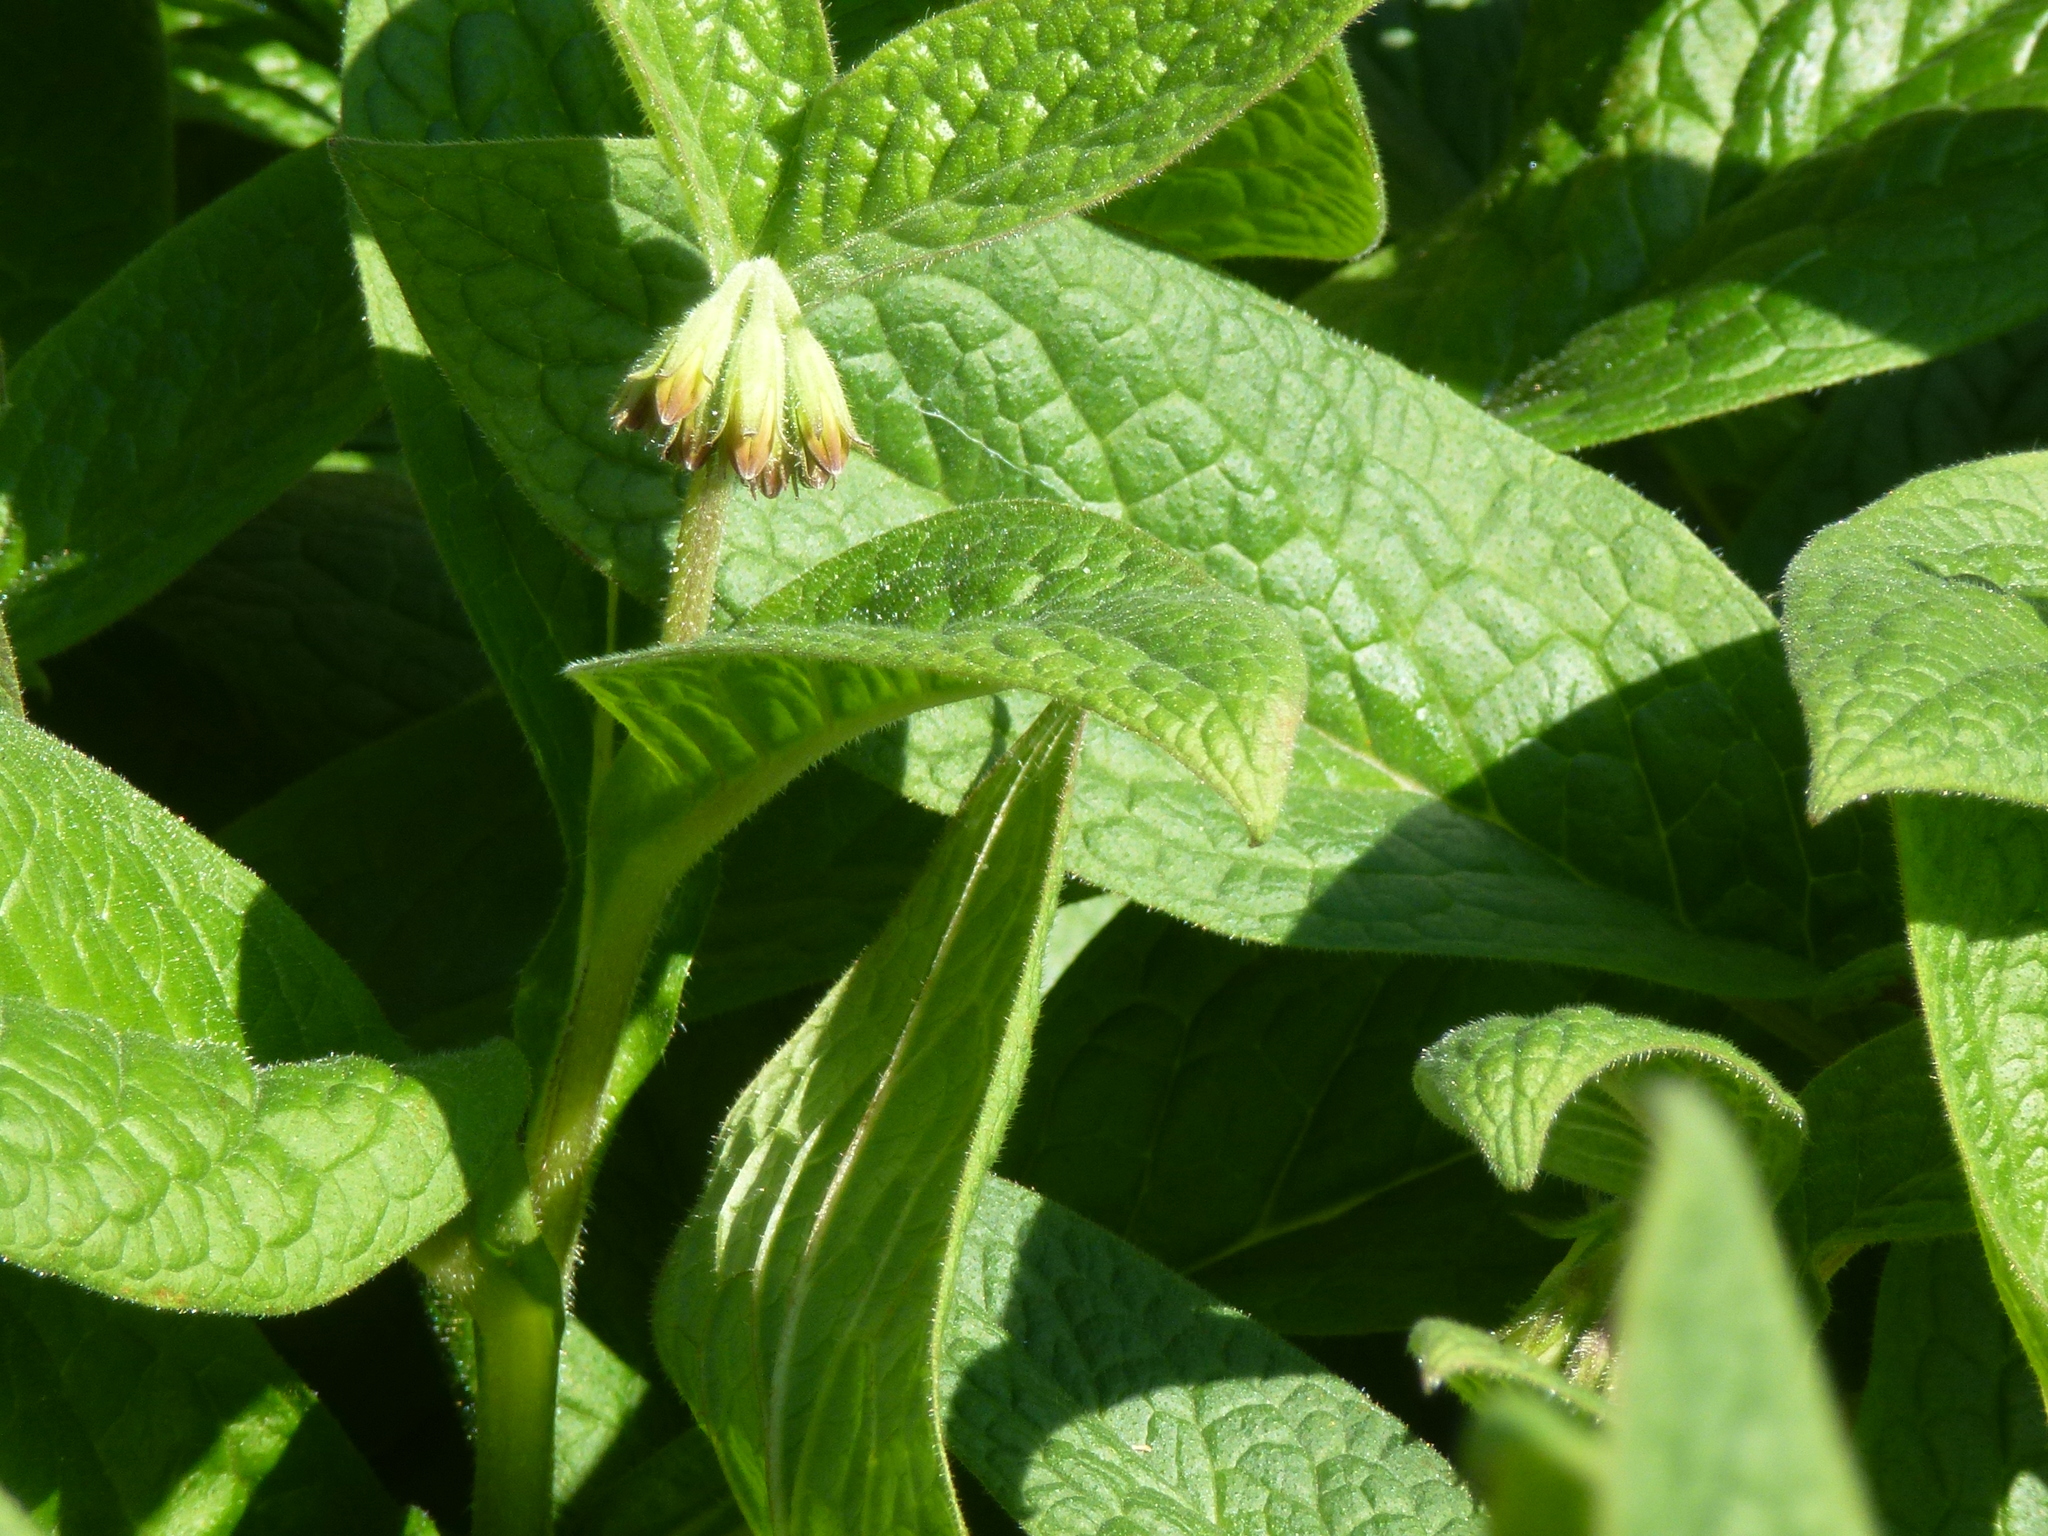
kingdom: Plantae
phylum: Tracheophyta
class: Magnoliopsida
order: Boraginales
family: Boraginaceae
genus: Symphytum
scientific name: Symphytum tuberosum
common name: Tuberous comfrey
